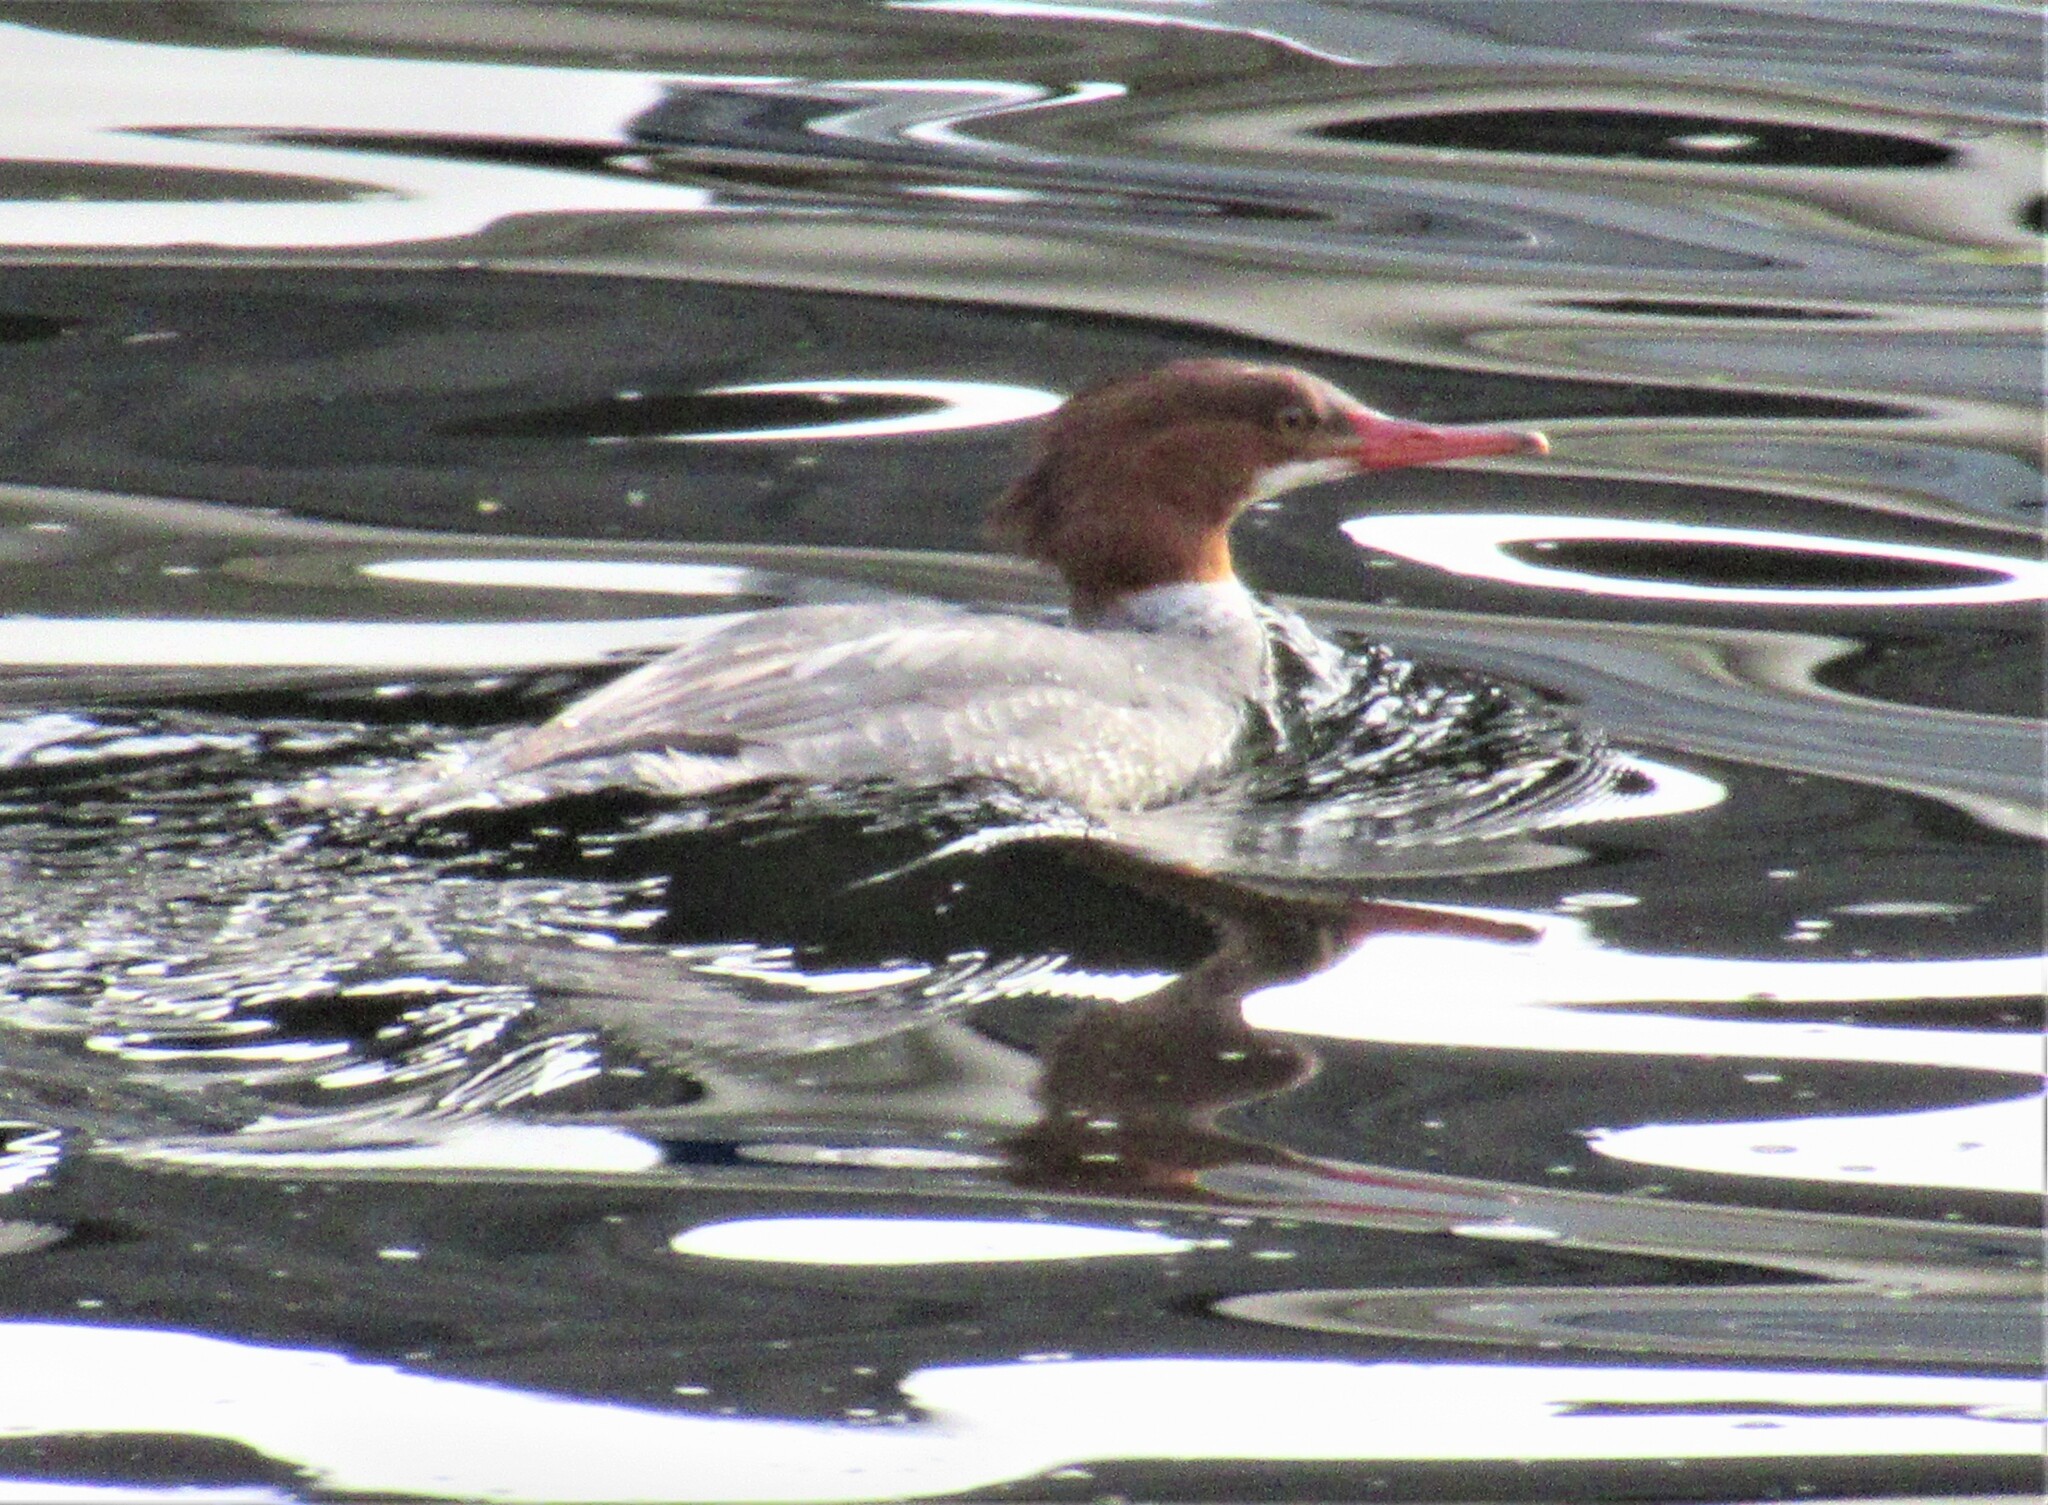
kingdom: Animalia
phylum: Chordata
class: Aves
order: Anseriformes
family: Anatidae
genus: Mergus
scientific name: Mergus merganser
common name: Common merganser
